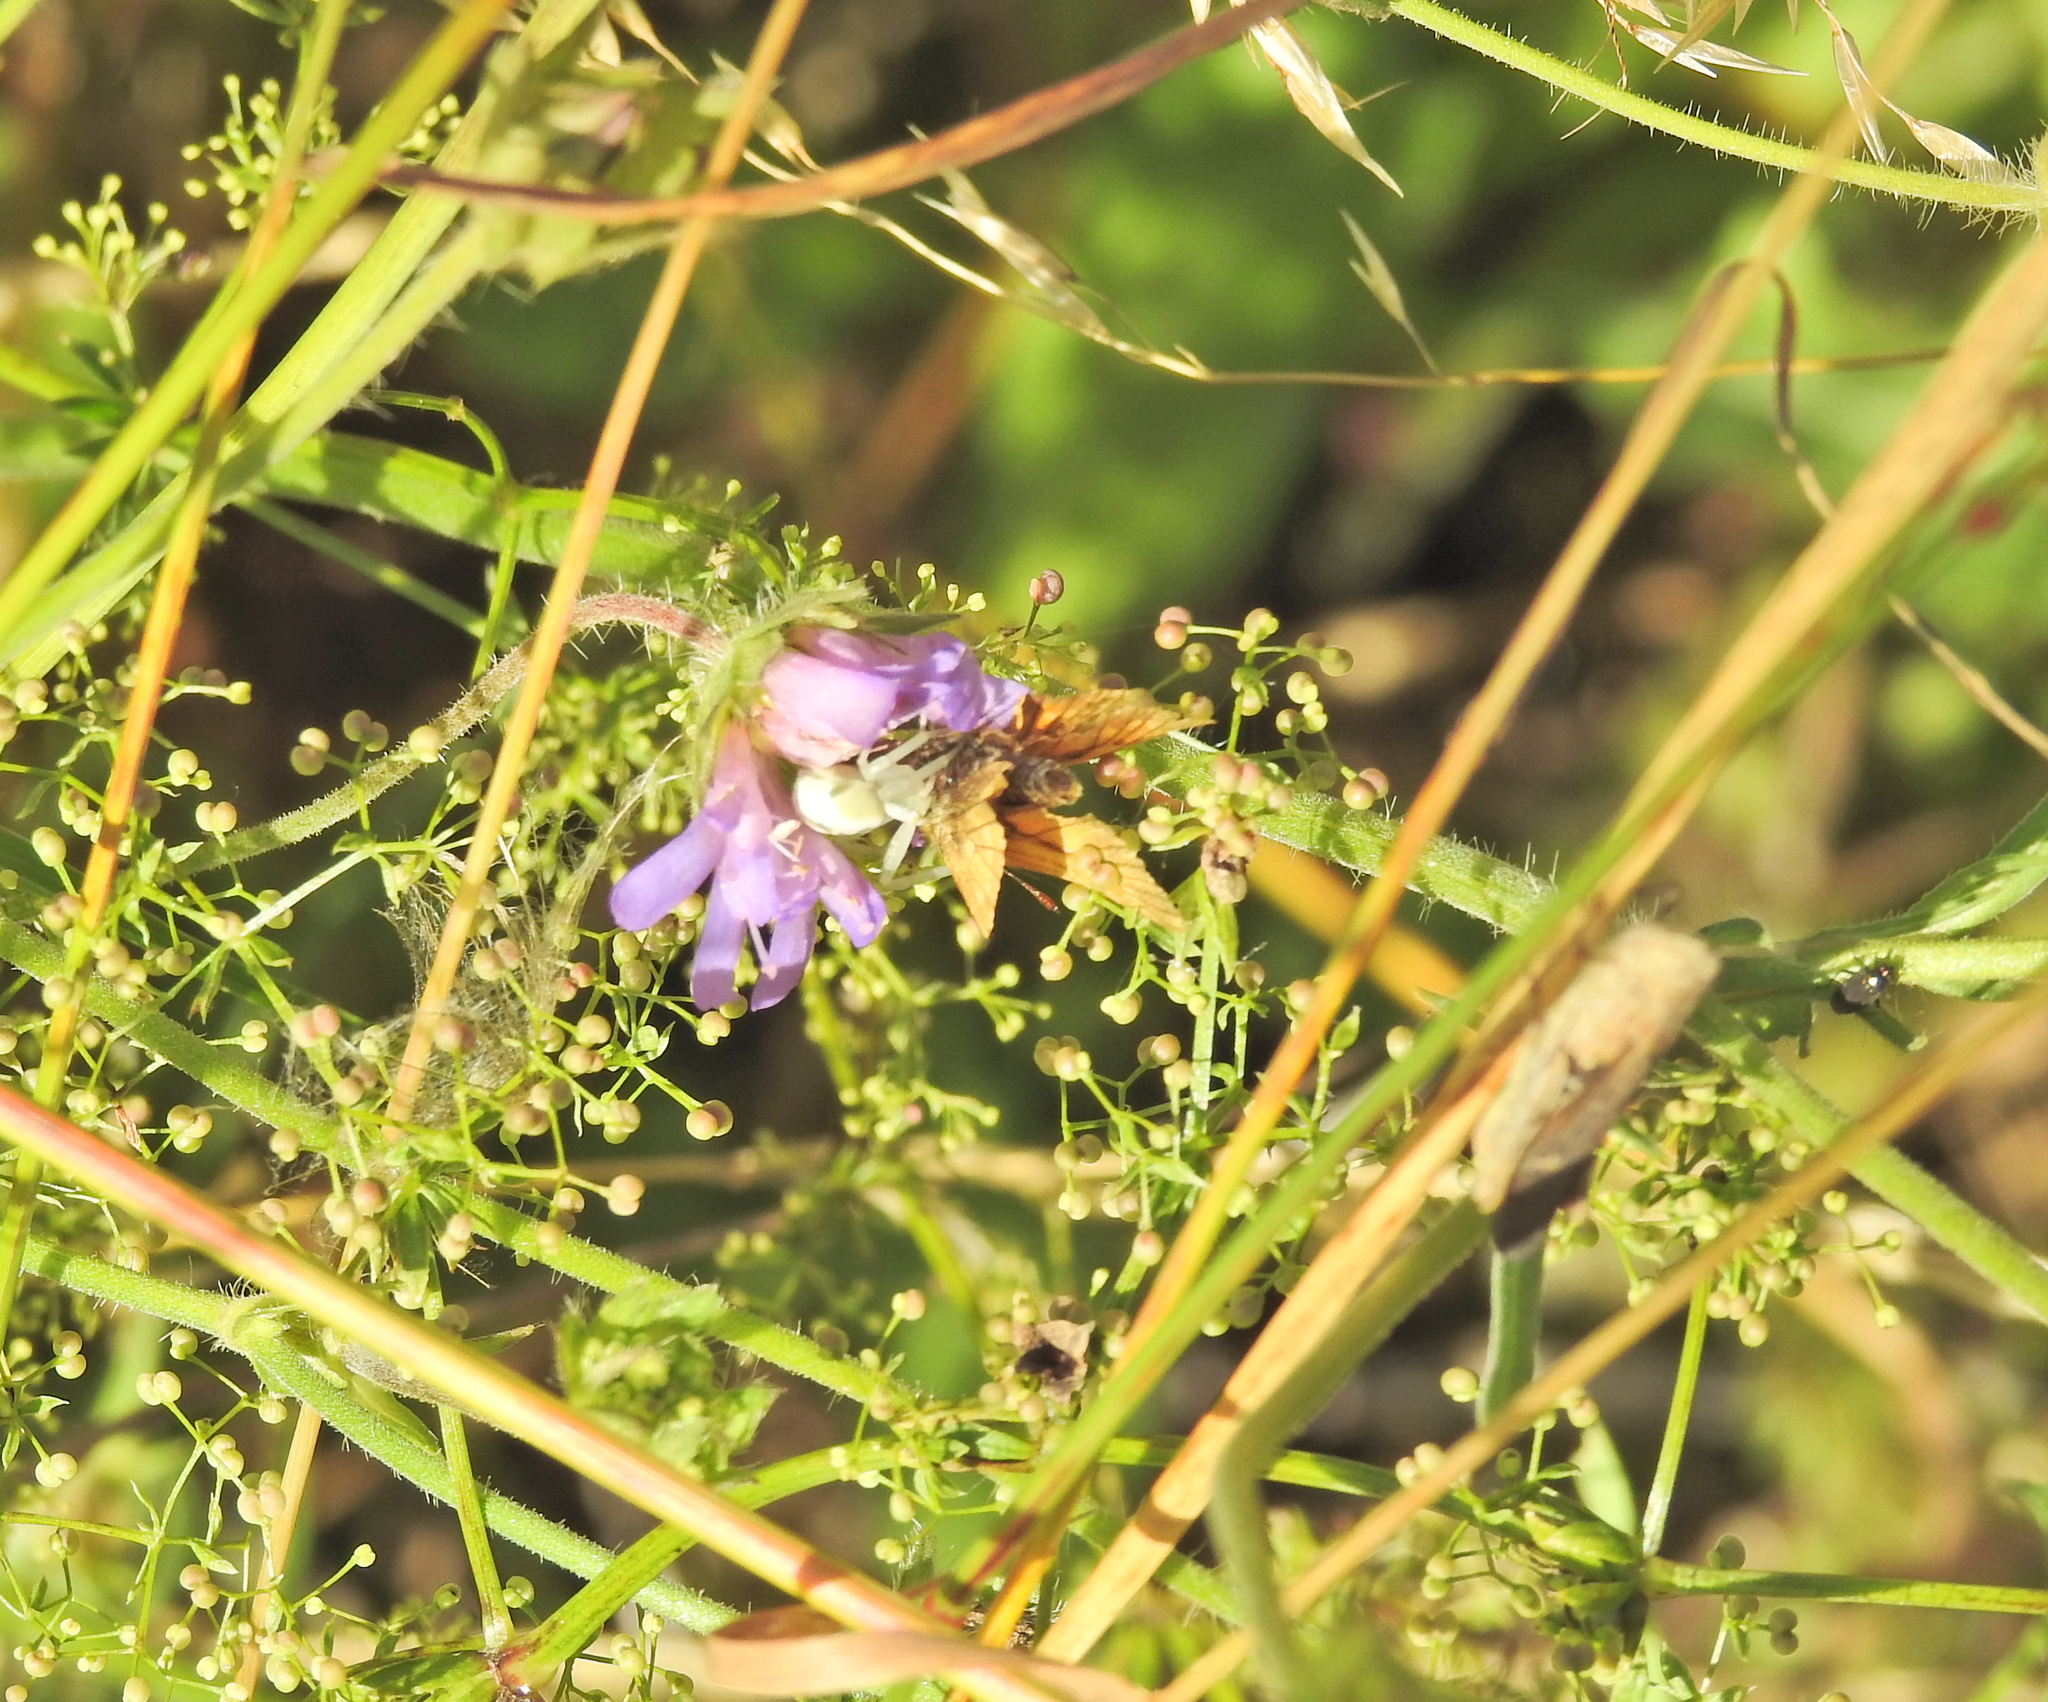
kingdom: Animalia
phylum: Arthropoda
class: Arachnida
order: Araneae
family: Thomisidae
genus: Misumena
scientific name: Misumena vatia
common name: Goldenrod crab spider
